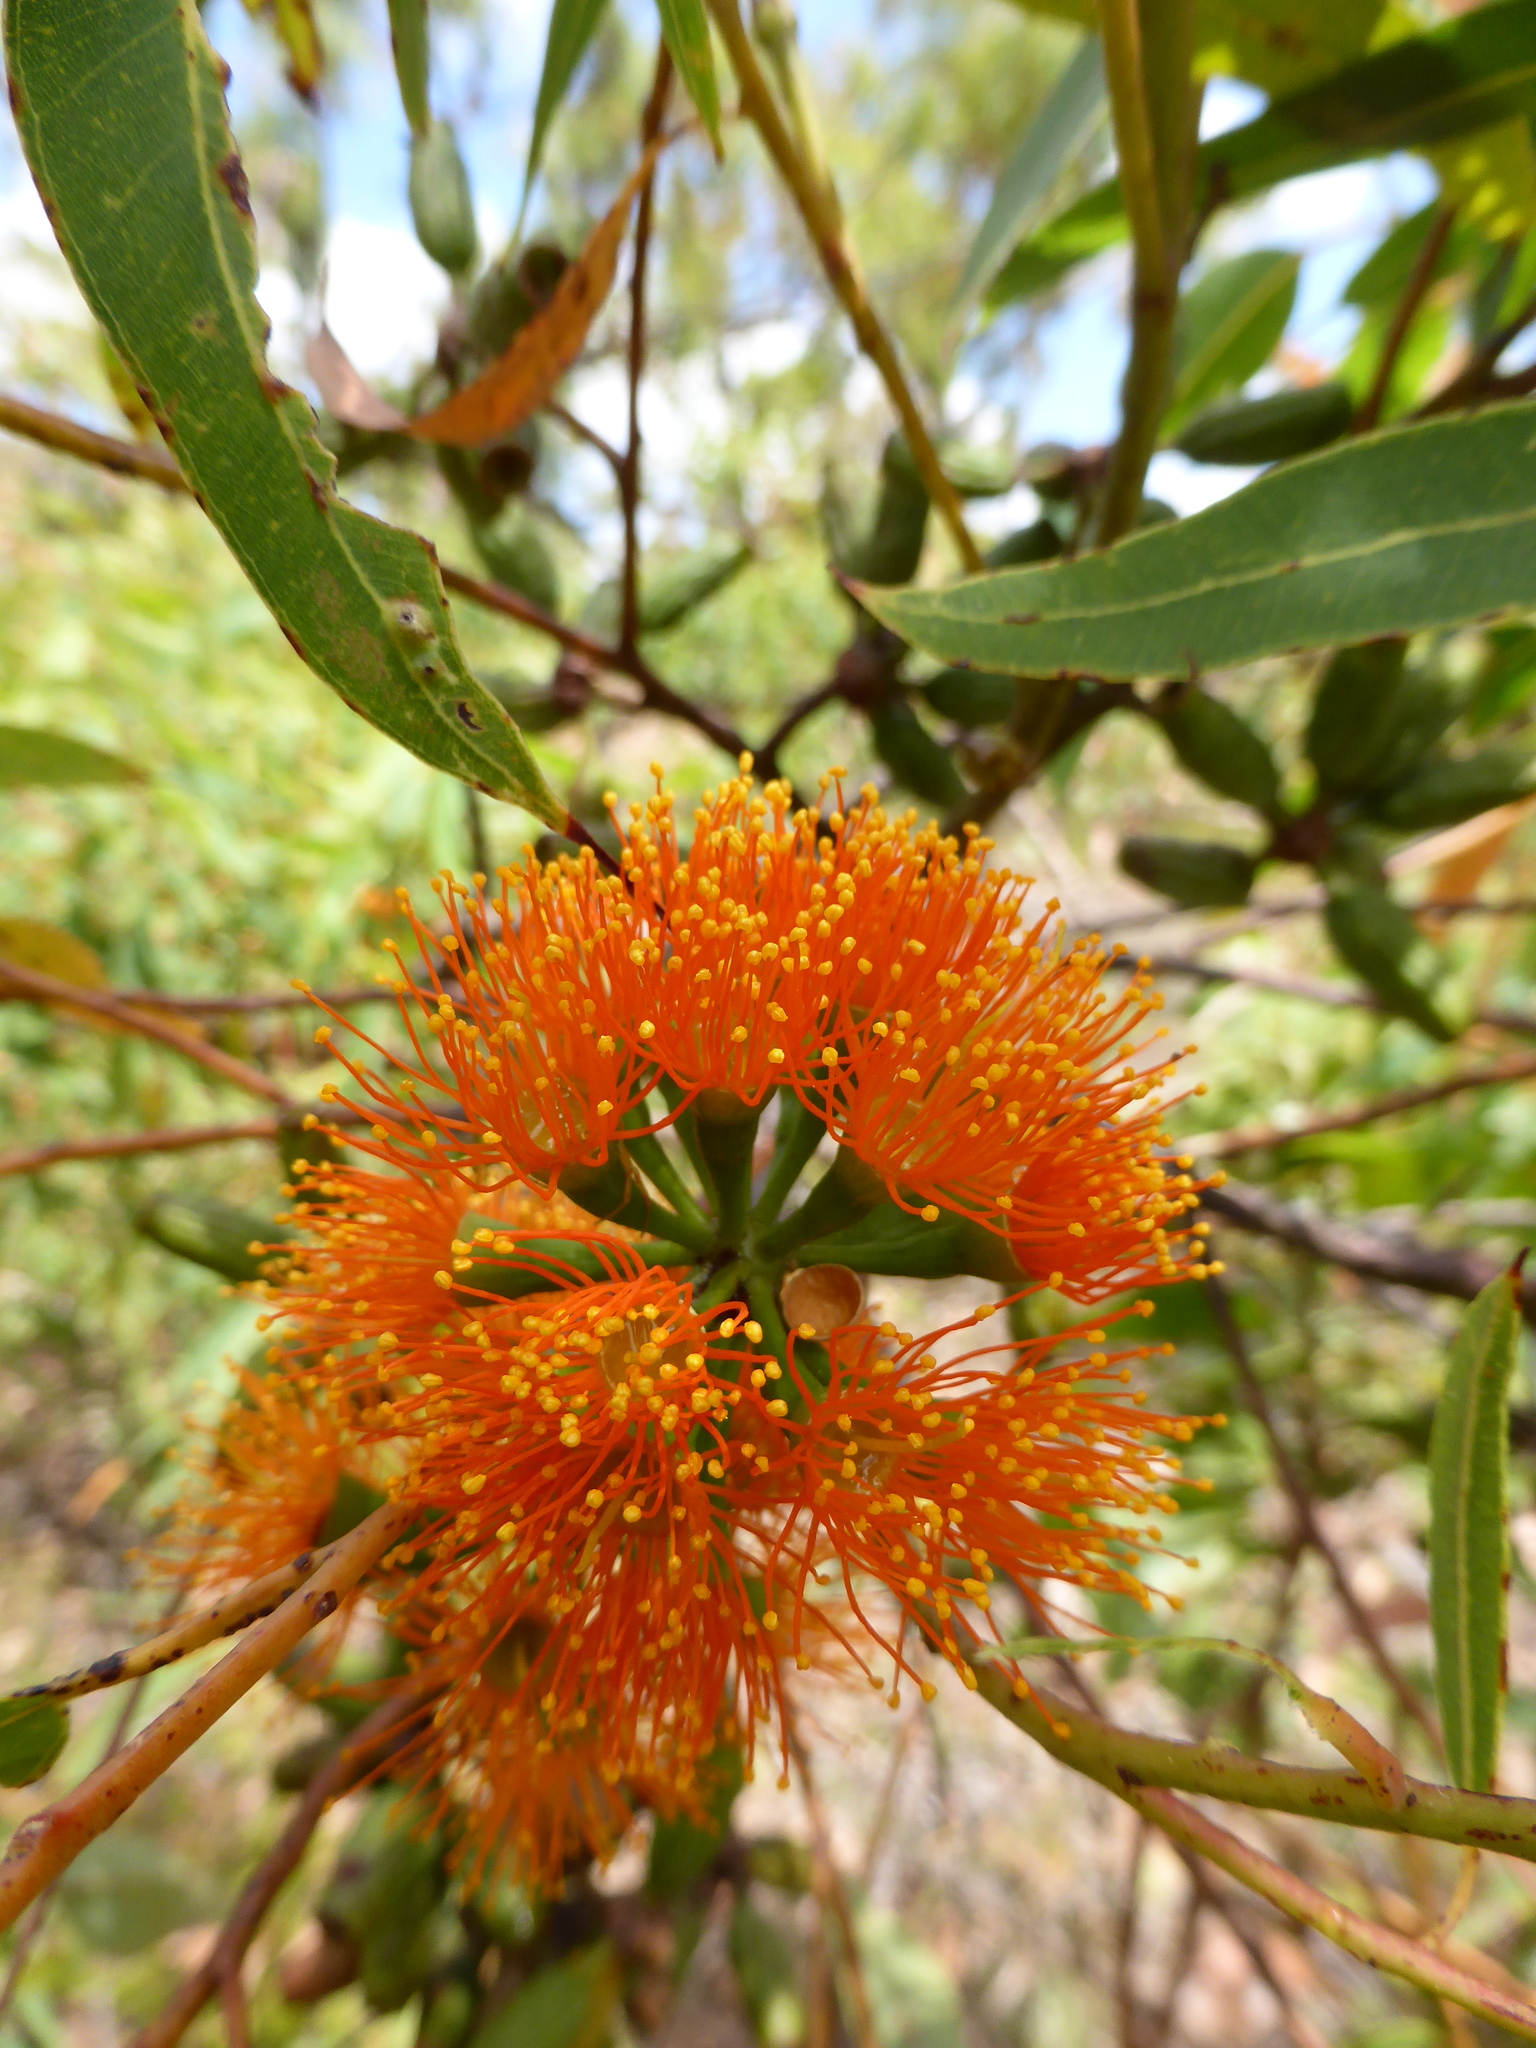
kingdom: Plantae
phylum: Tracheophyta
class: Magnoliopsida
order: Myrtales
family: Myrtaceae
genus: Eucalyptus
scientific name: Eucalyptus phoenicea
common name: Gnaingar
